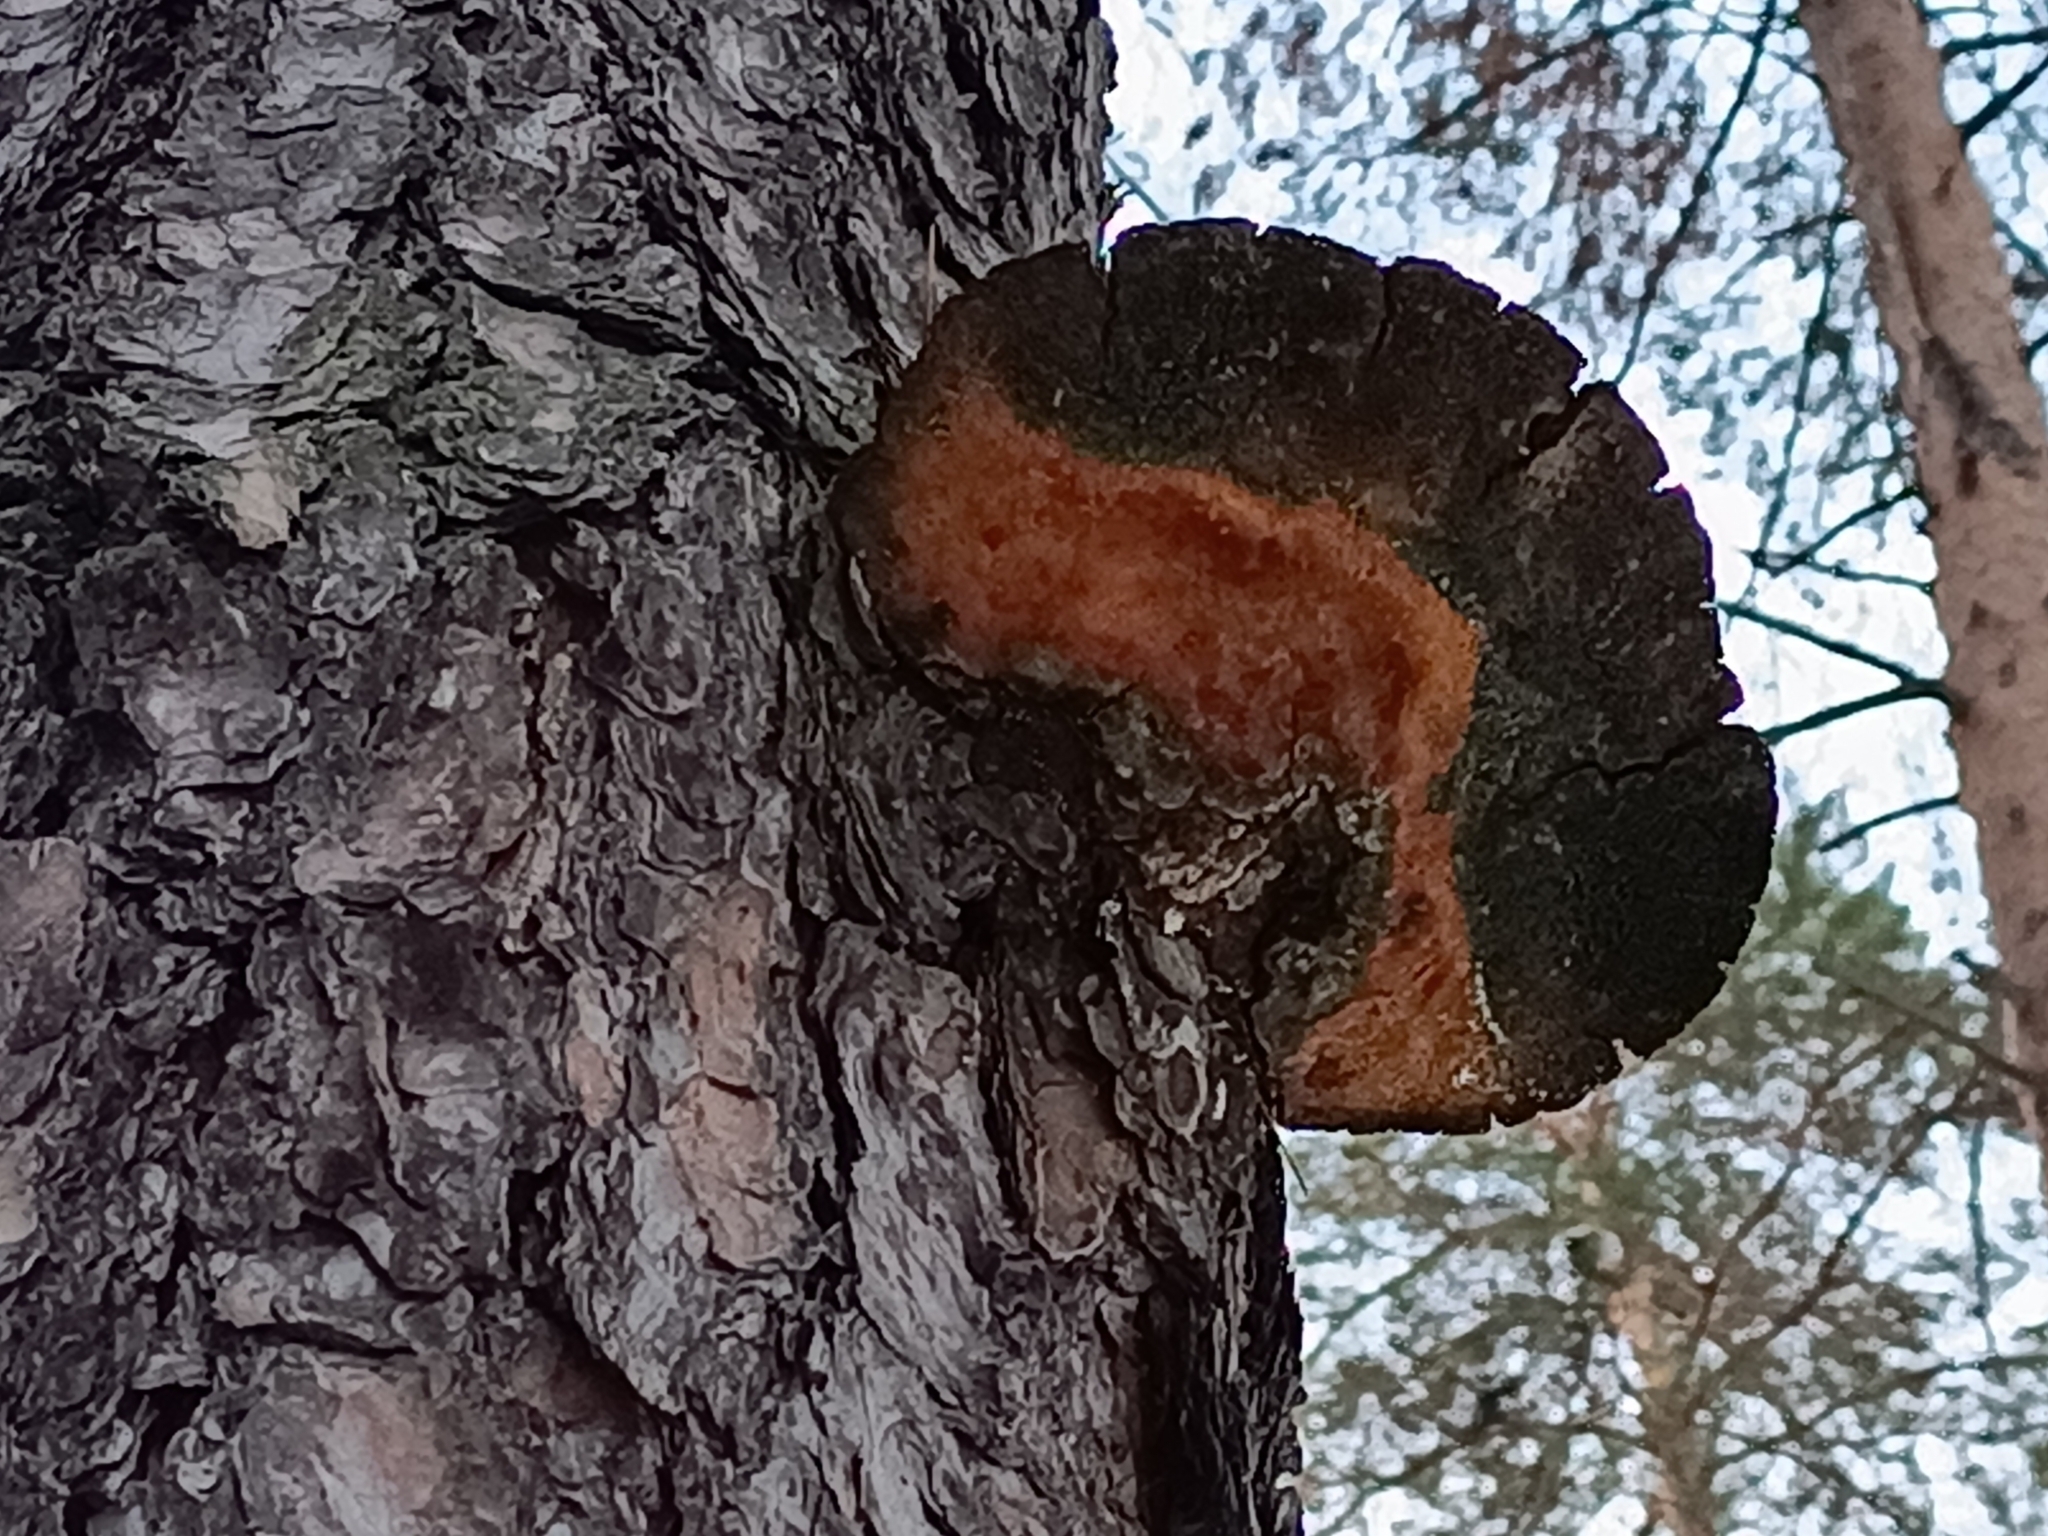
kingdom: Fungi
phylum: Basidiomycota
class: Agaricomycetes
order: Hymenochaetales
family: Hymenochaetaceae
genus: Porodaedalea
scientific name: Porodaedalea pini
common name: Pine bracket
